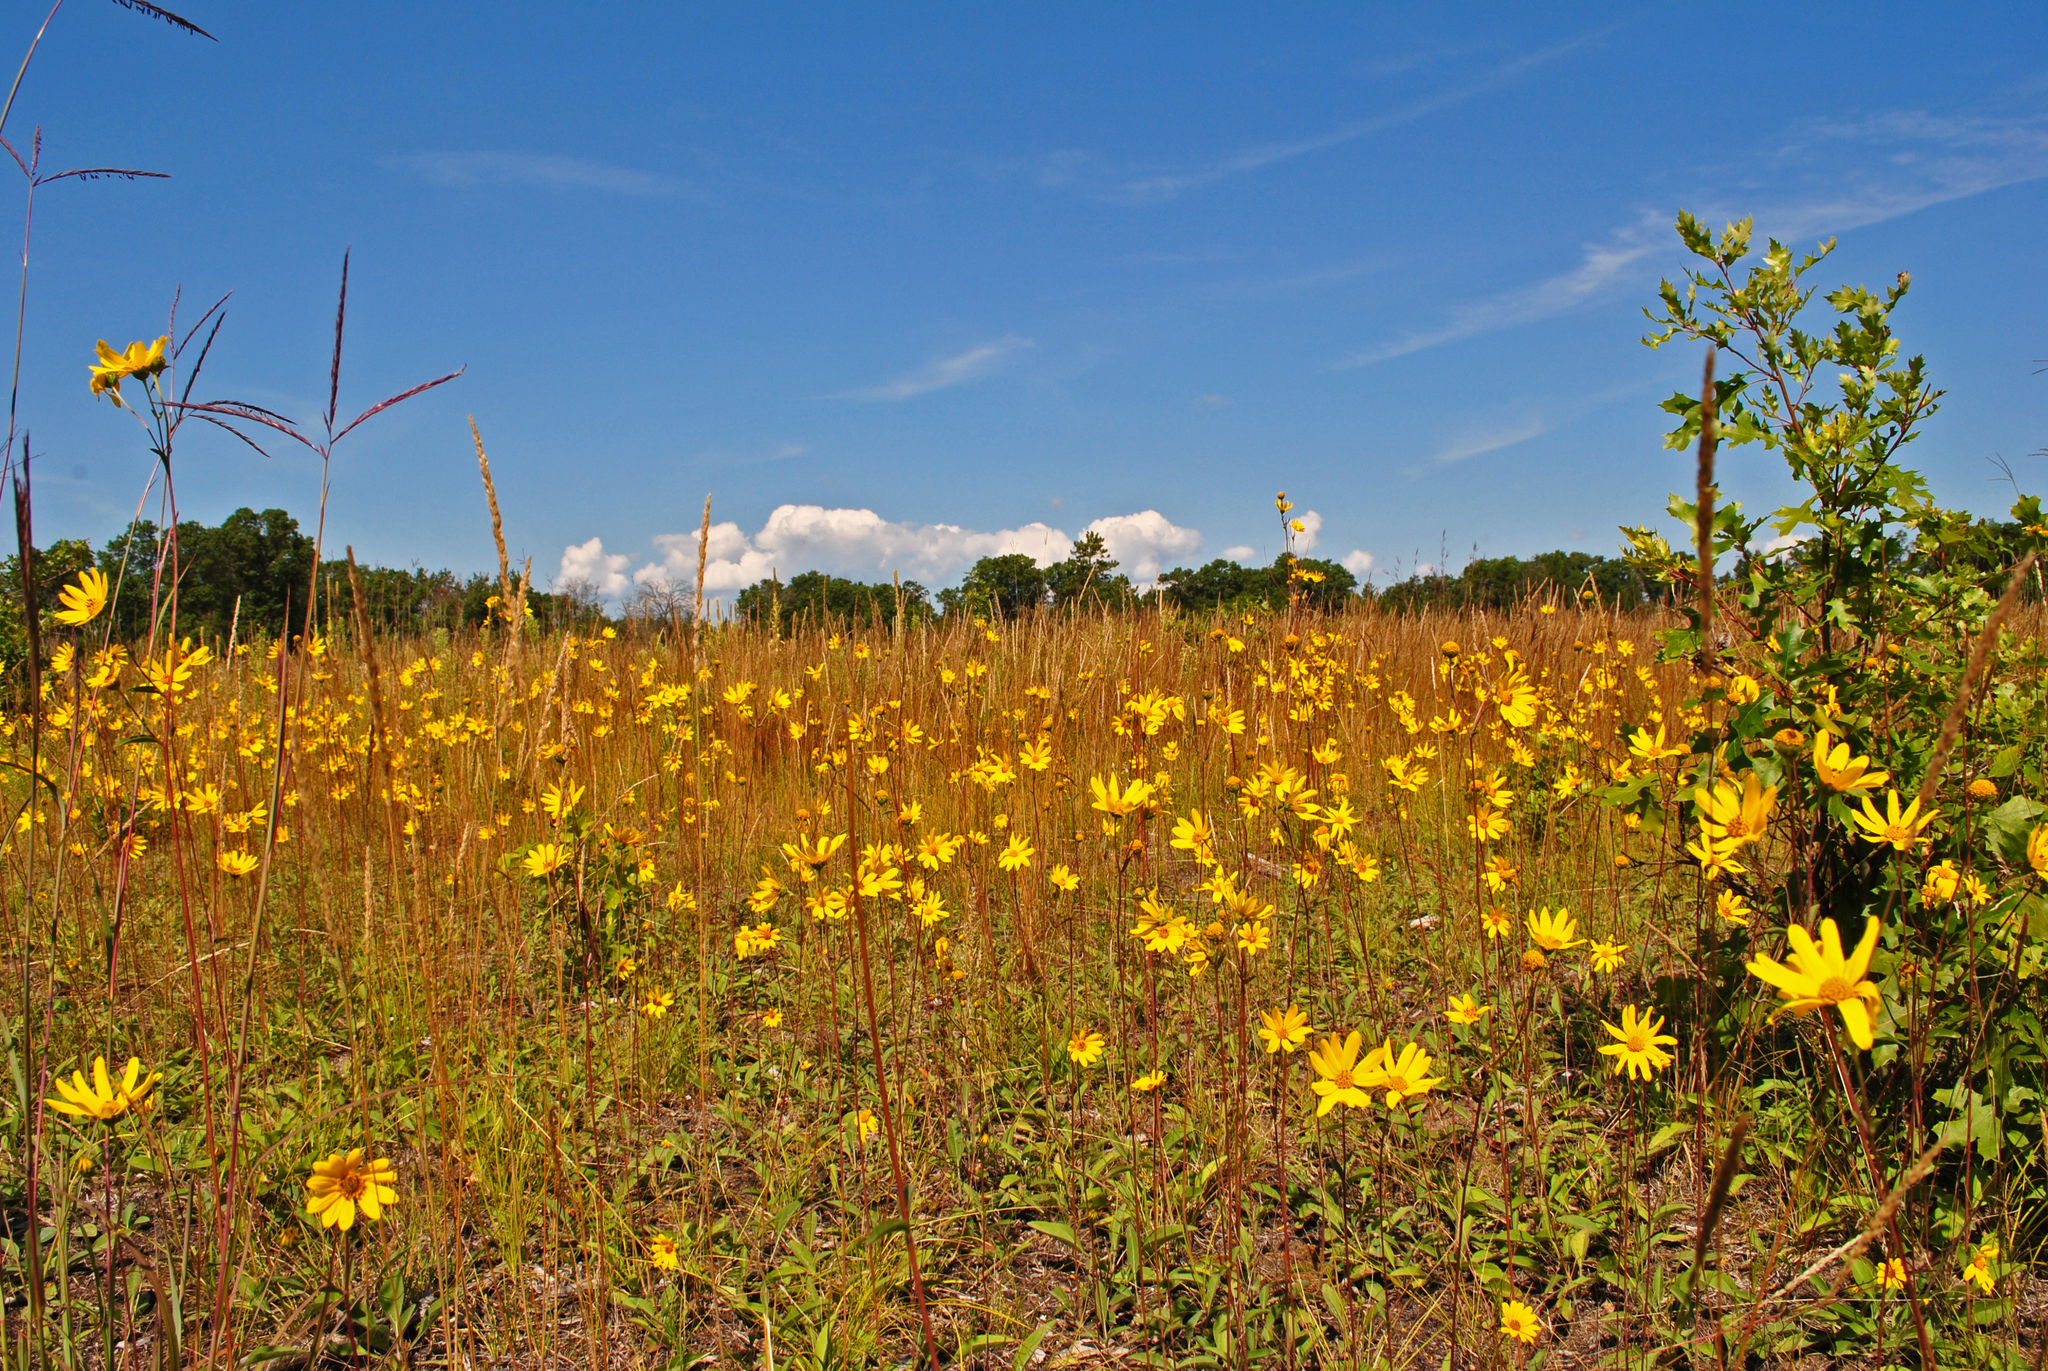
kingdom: Plantae
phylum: Tracheophyta
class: Magnoliopsida
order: Asterales
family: Asteraceae
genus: Helianthus
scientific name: Helianthus occidentalis
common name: Western sunflower
